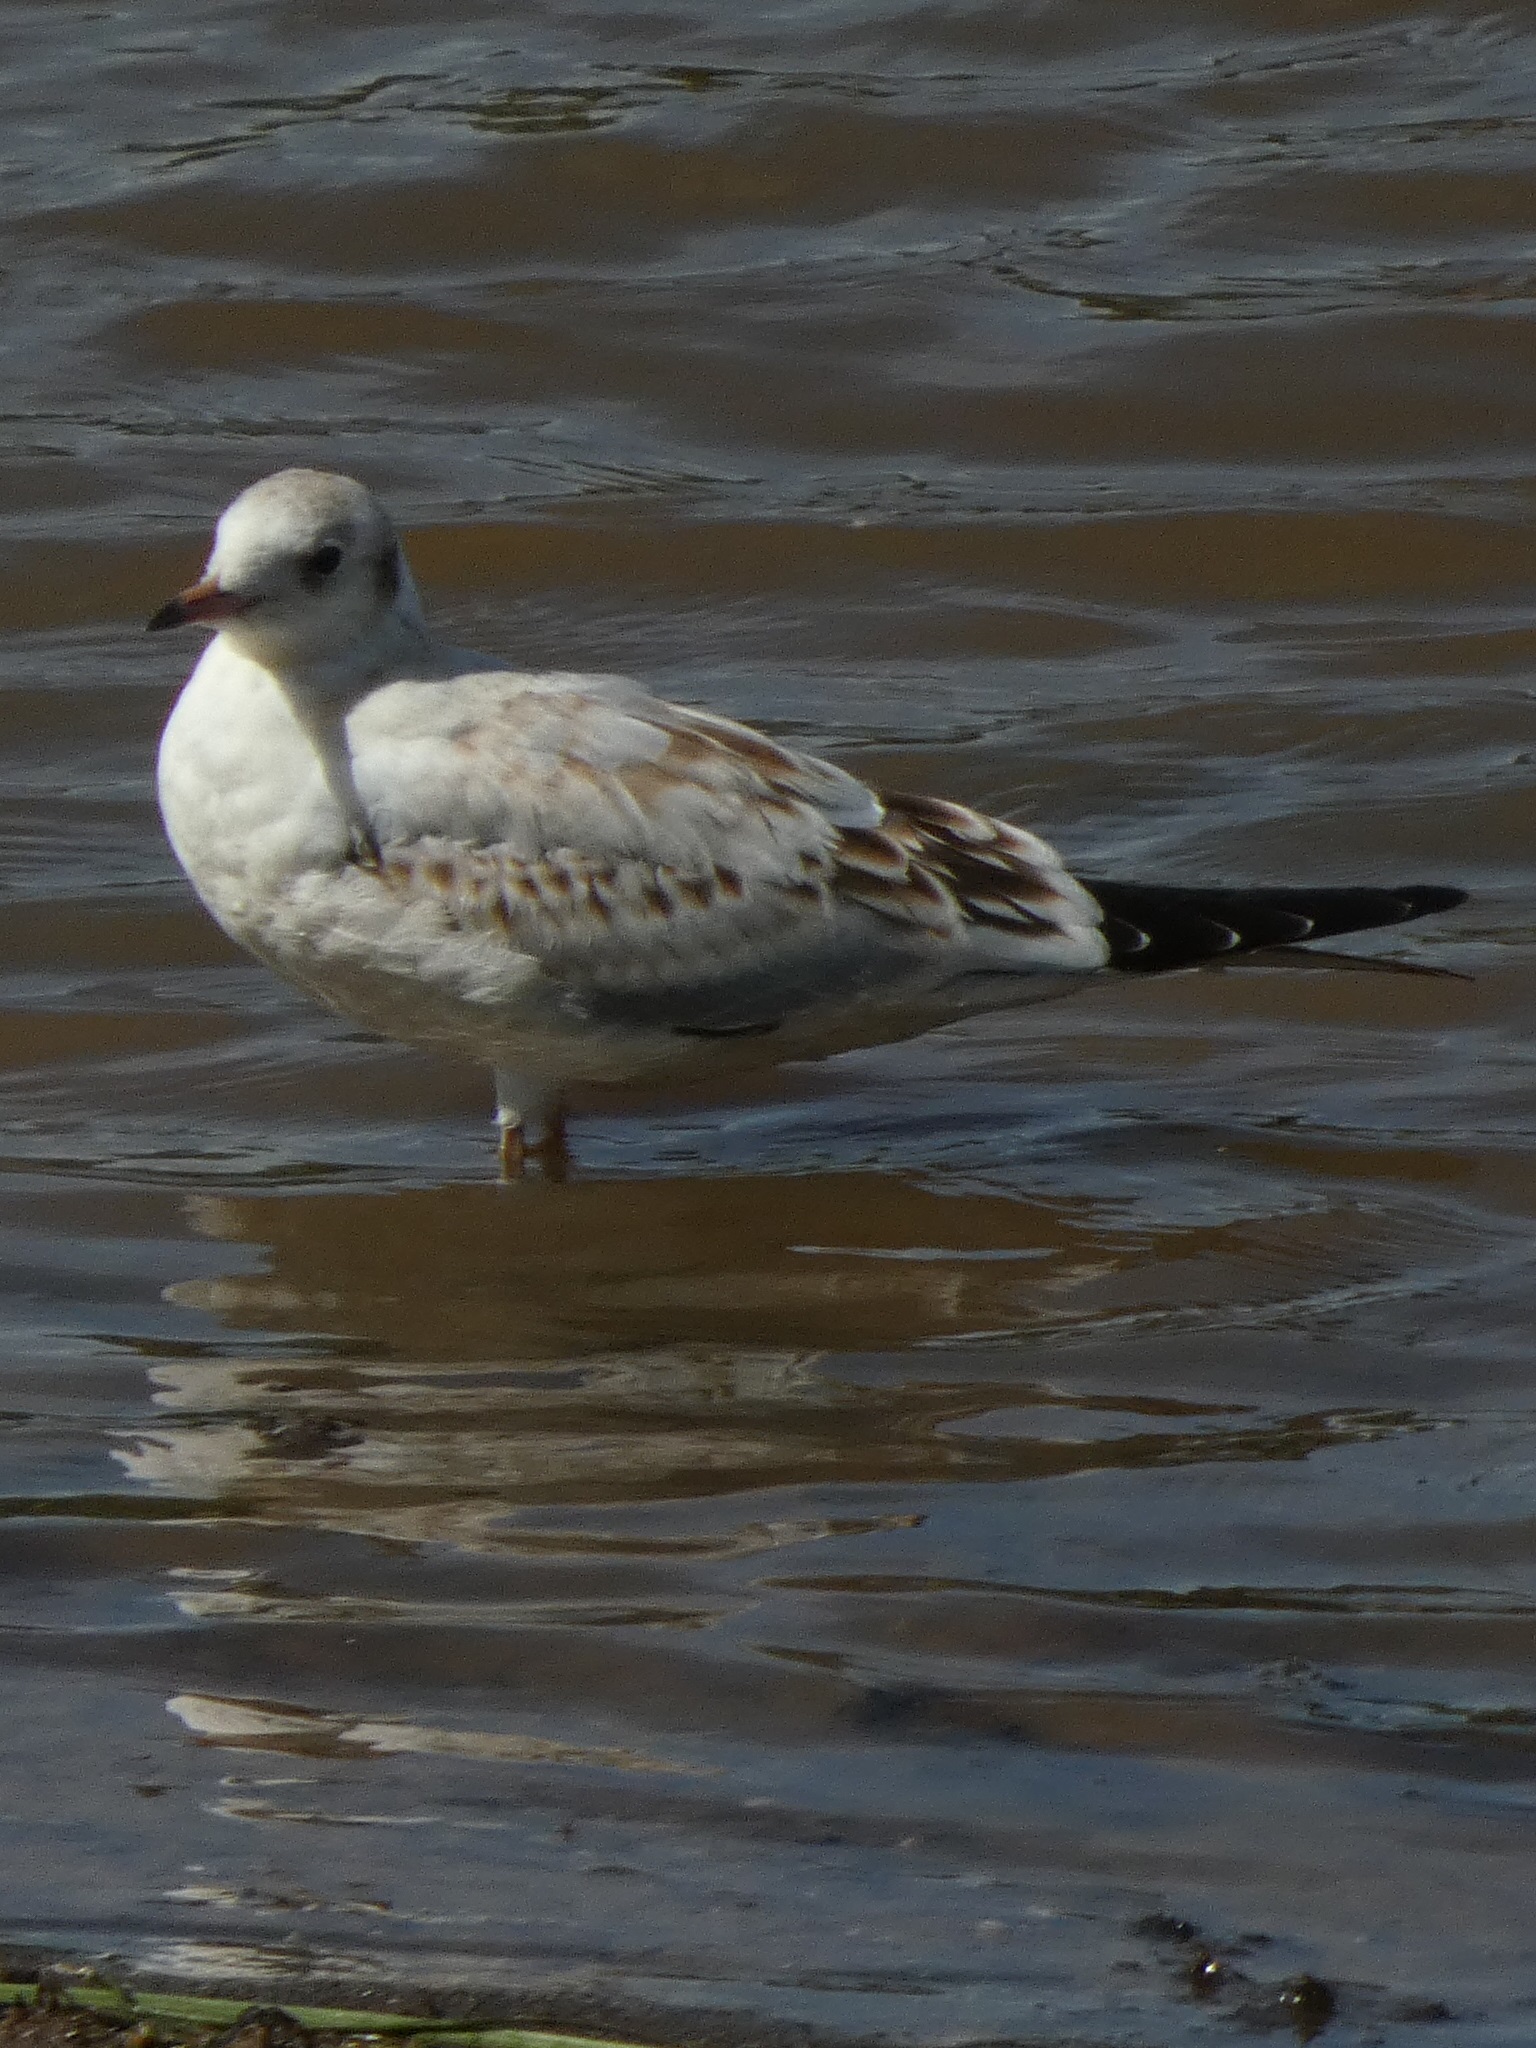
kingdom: Animalia
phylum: Chordata
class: Aves
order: Charadriiformes
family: Laridae
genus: Chroicocephalus
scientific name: Chroicocephalus ridibundus
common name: Black-headed gull
